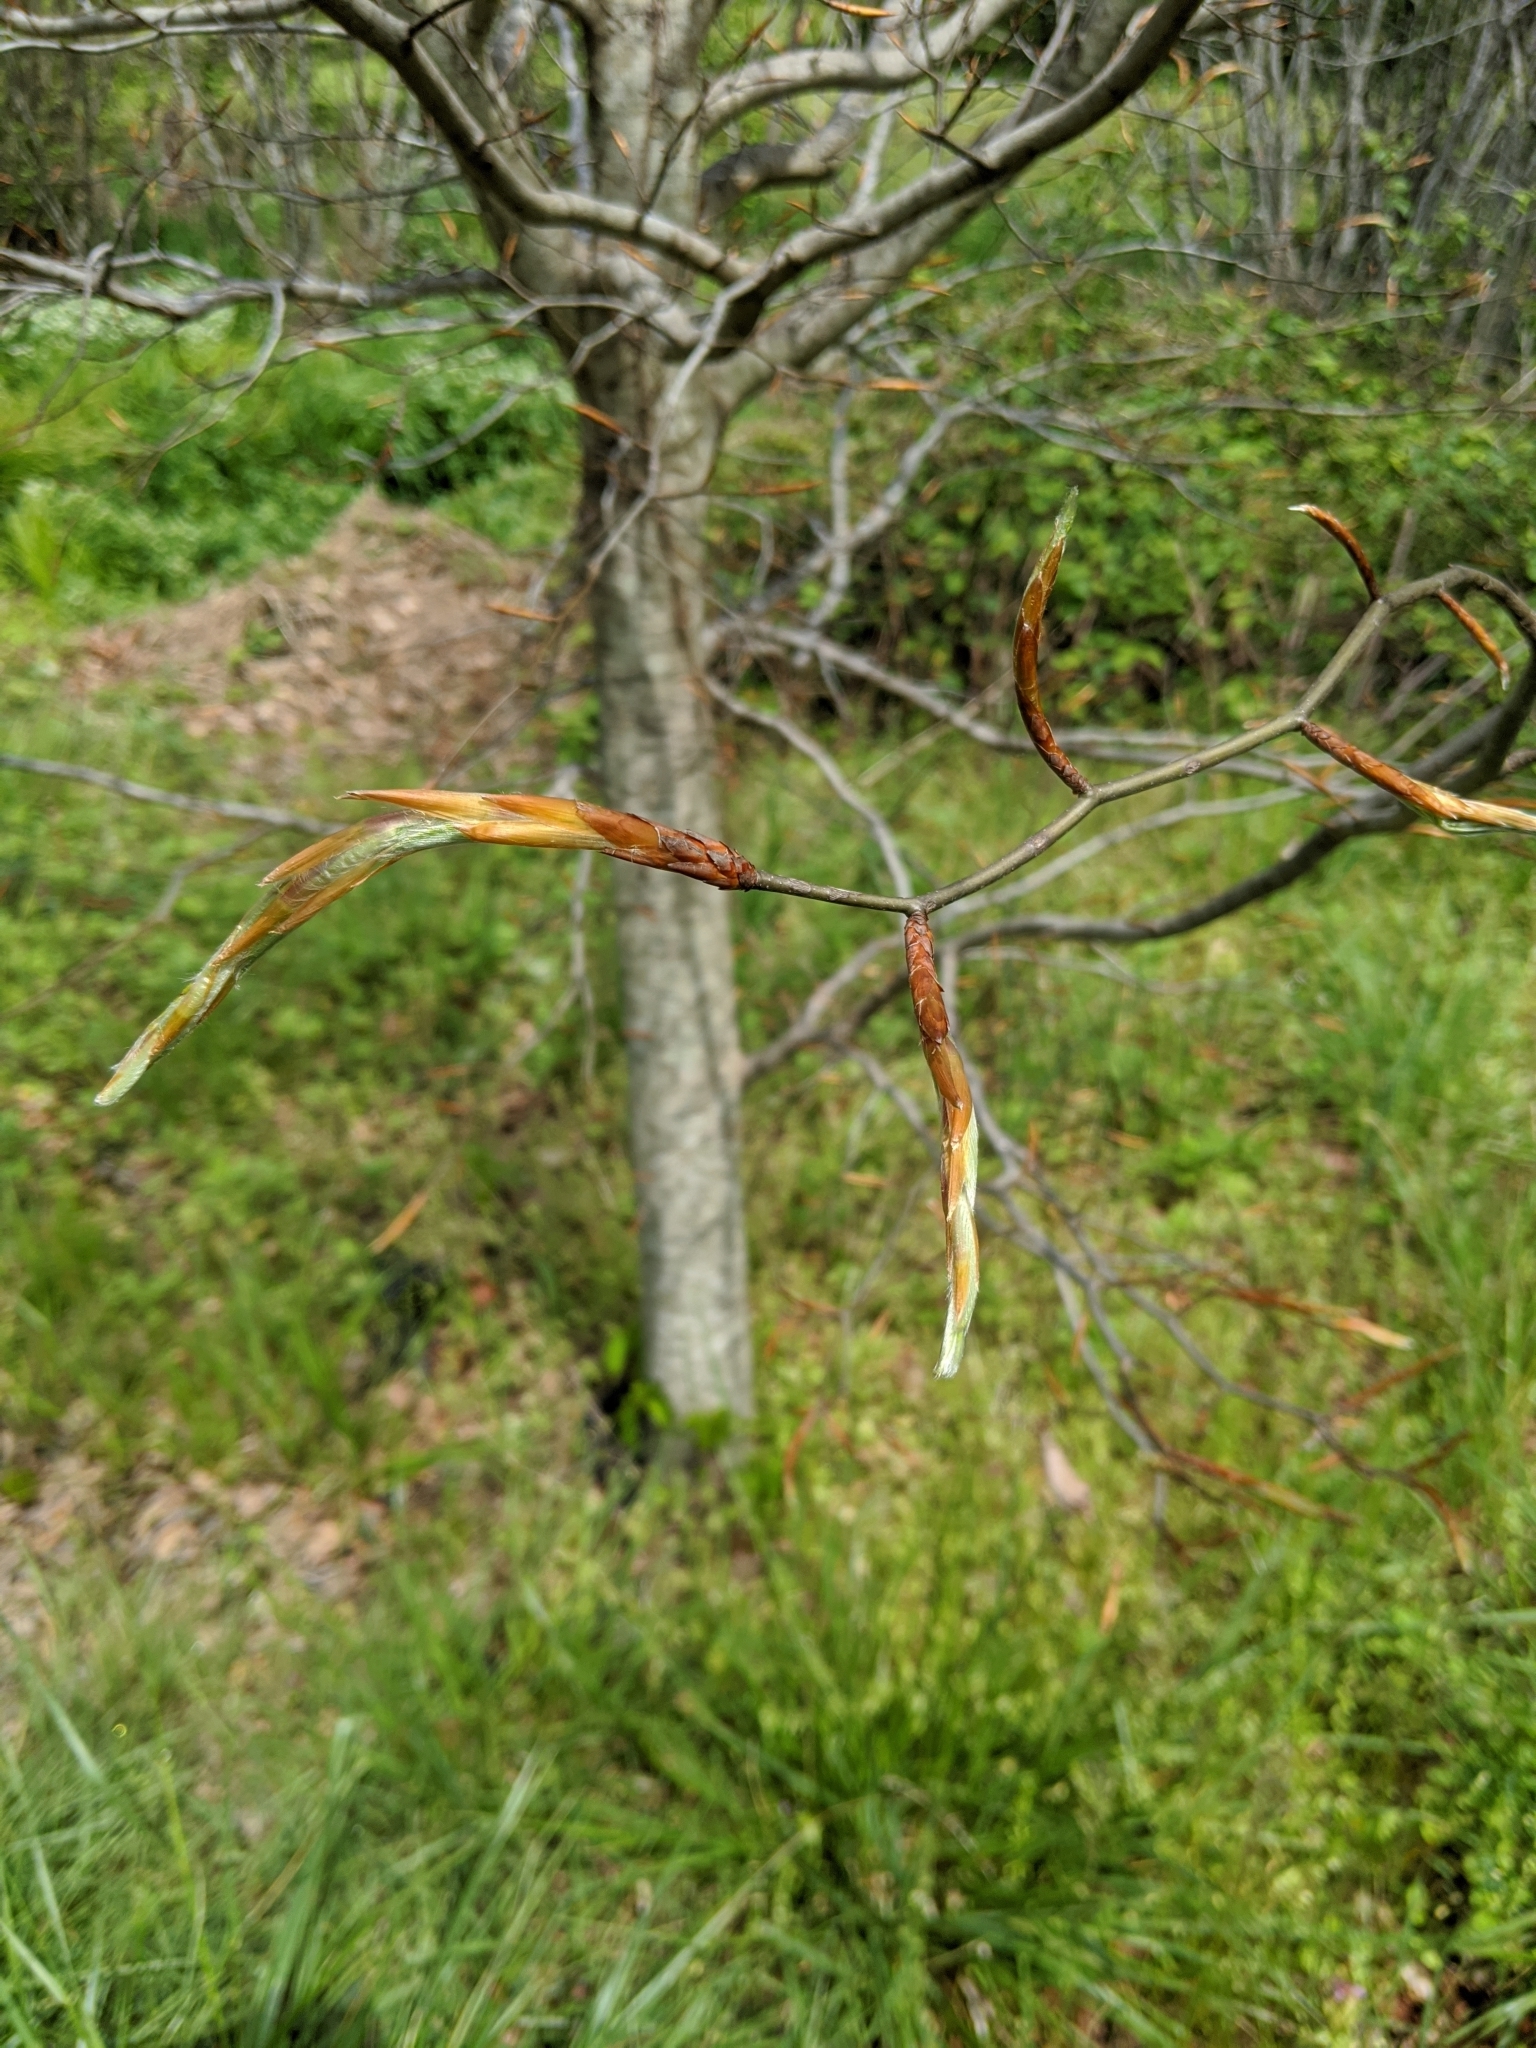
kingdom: Plantae
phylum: Tracheophyta
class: Magnoliopsida
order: Fagales
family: Fagaceae
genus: Fagus
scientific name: Fagus grandifolia
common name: American beech
